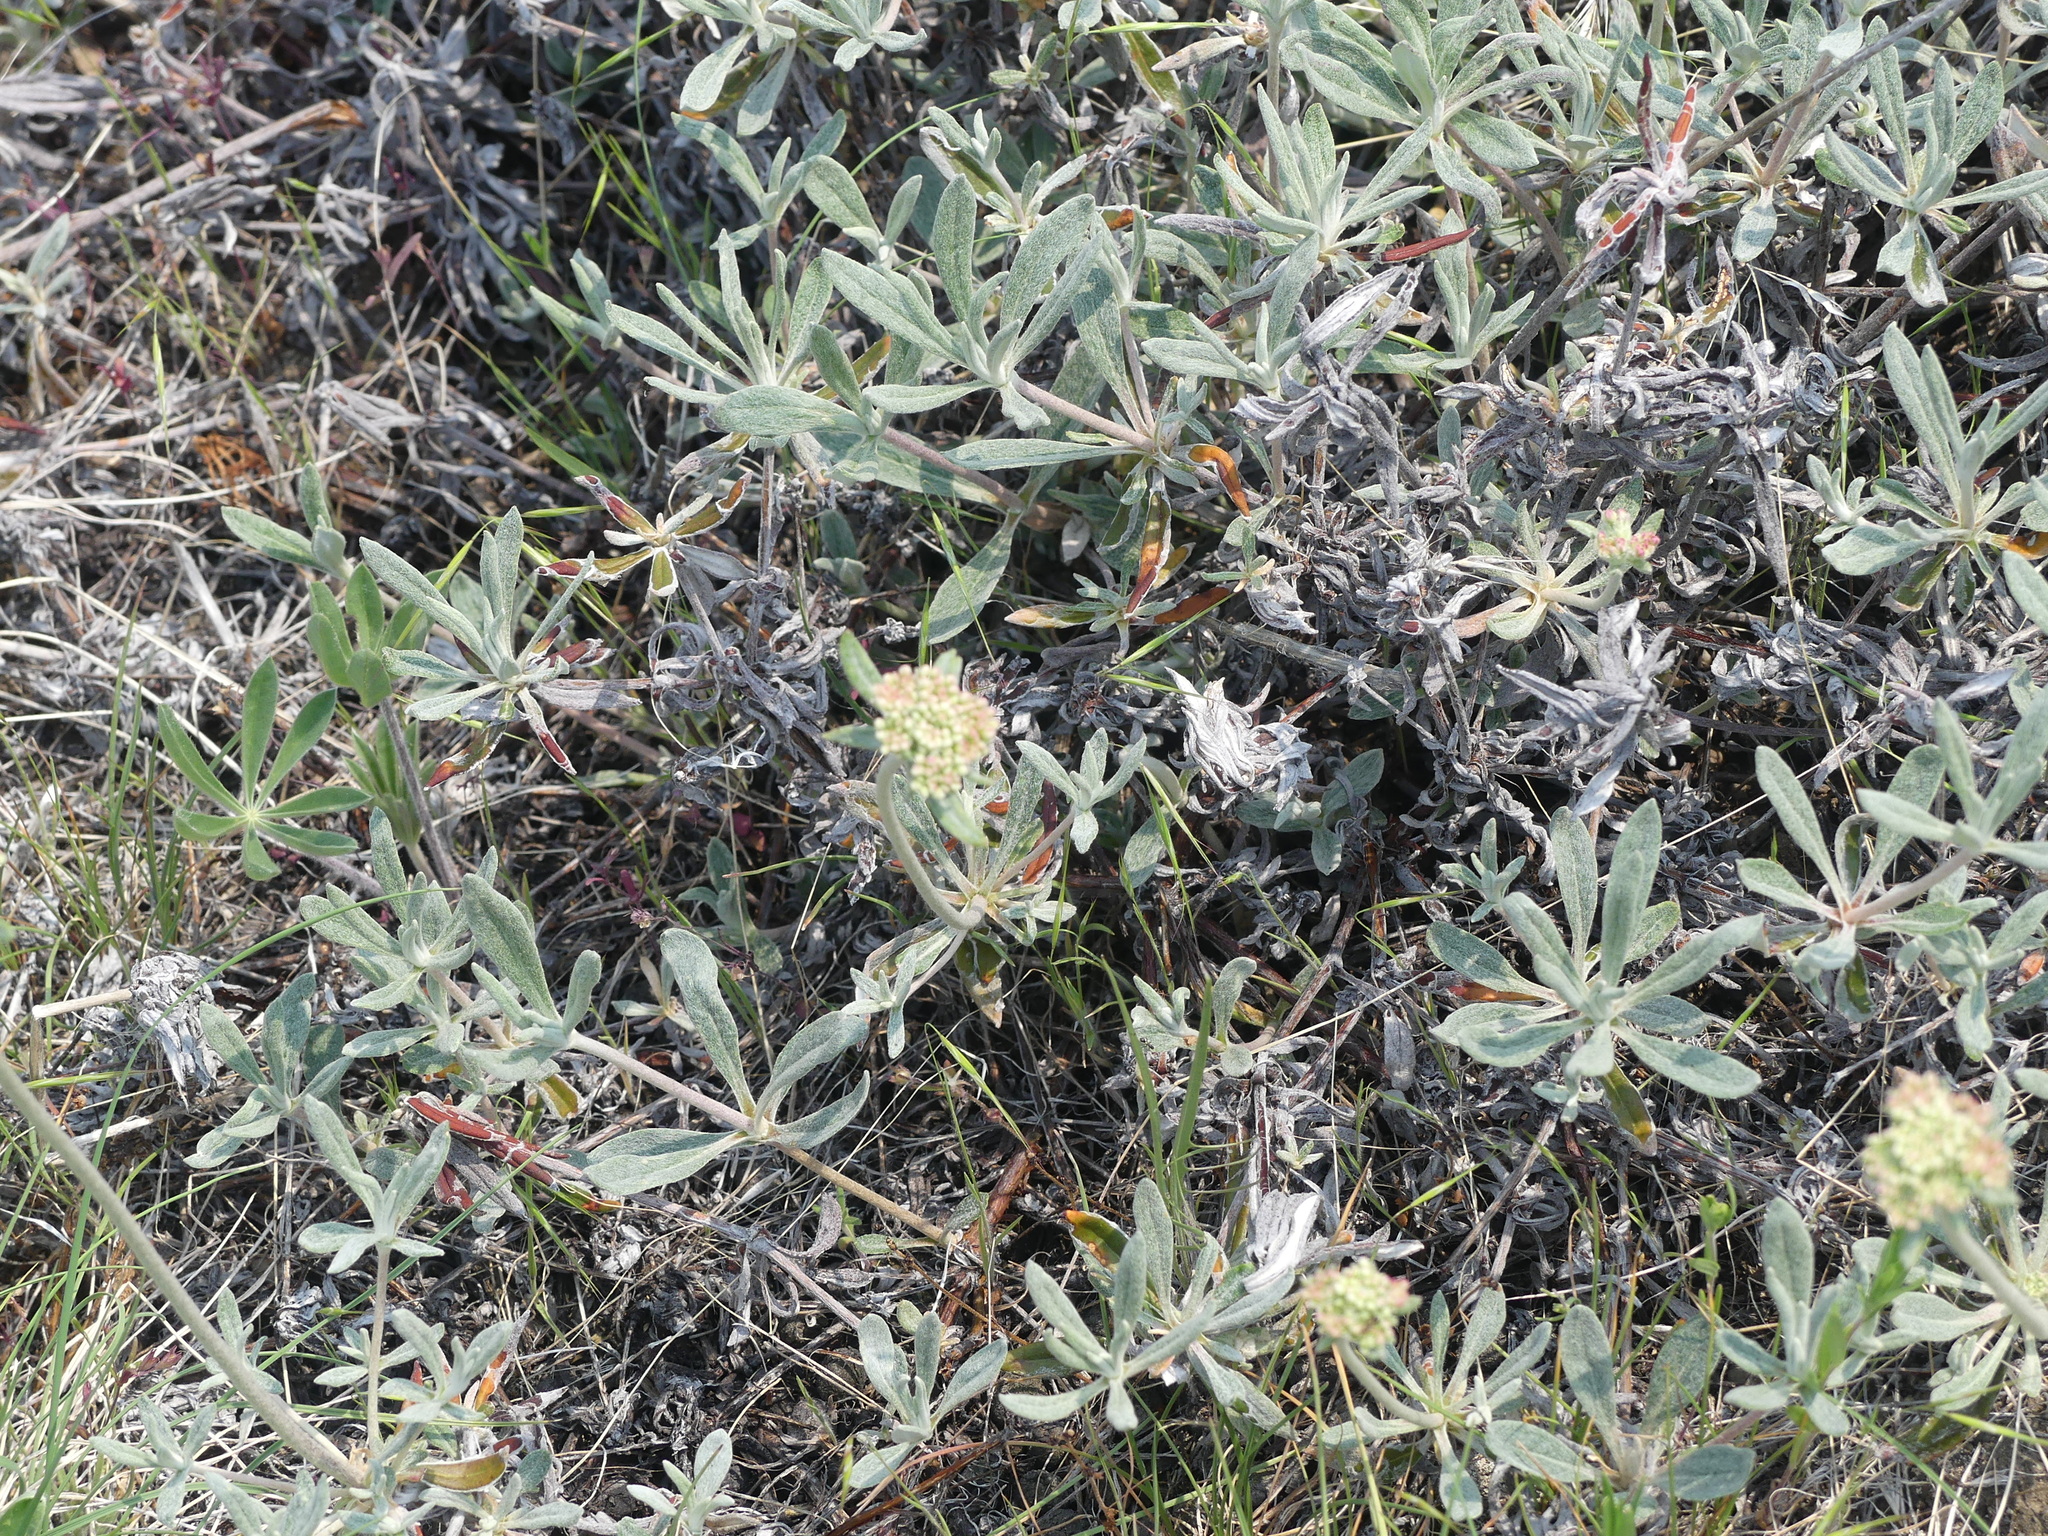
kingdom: Plantae
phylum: Tracheophyta
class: Magnoliopsida
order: Caryophyllales
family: Polygonaceae
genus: Eriogonum
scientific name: Eriogonum heracleoides
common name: Wyeth's buckwheat
